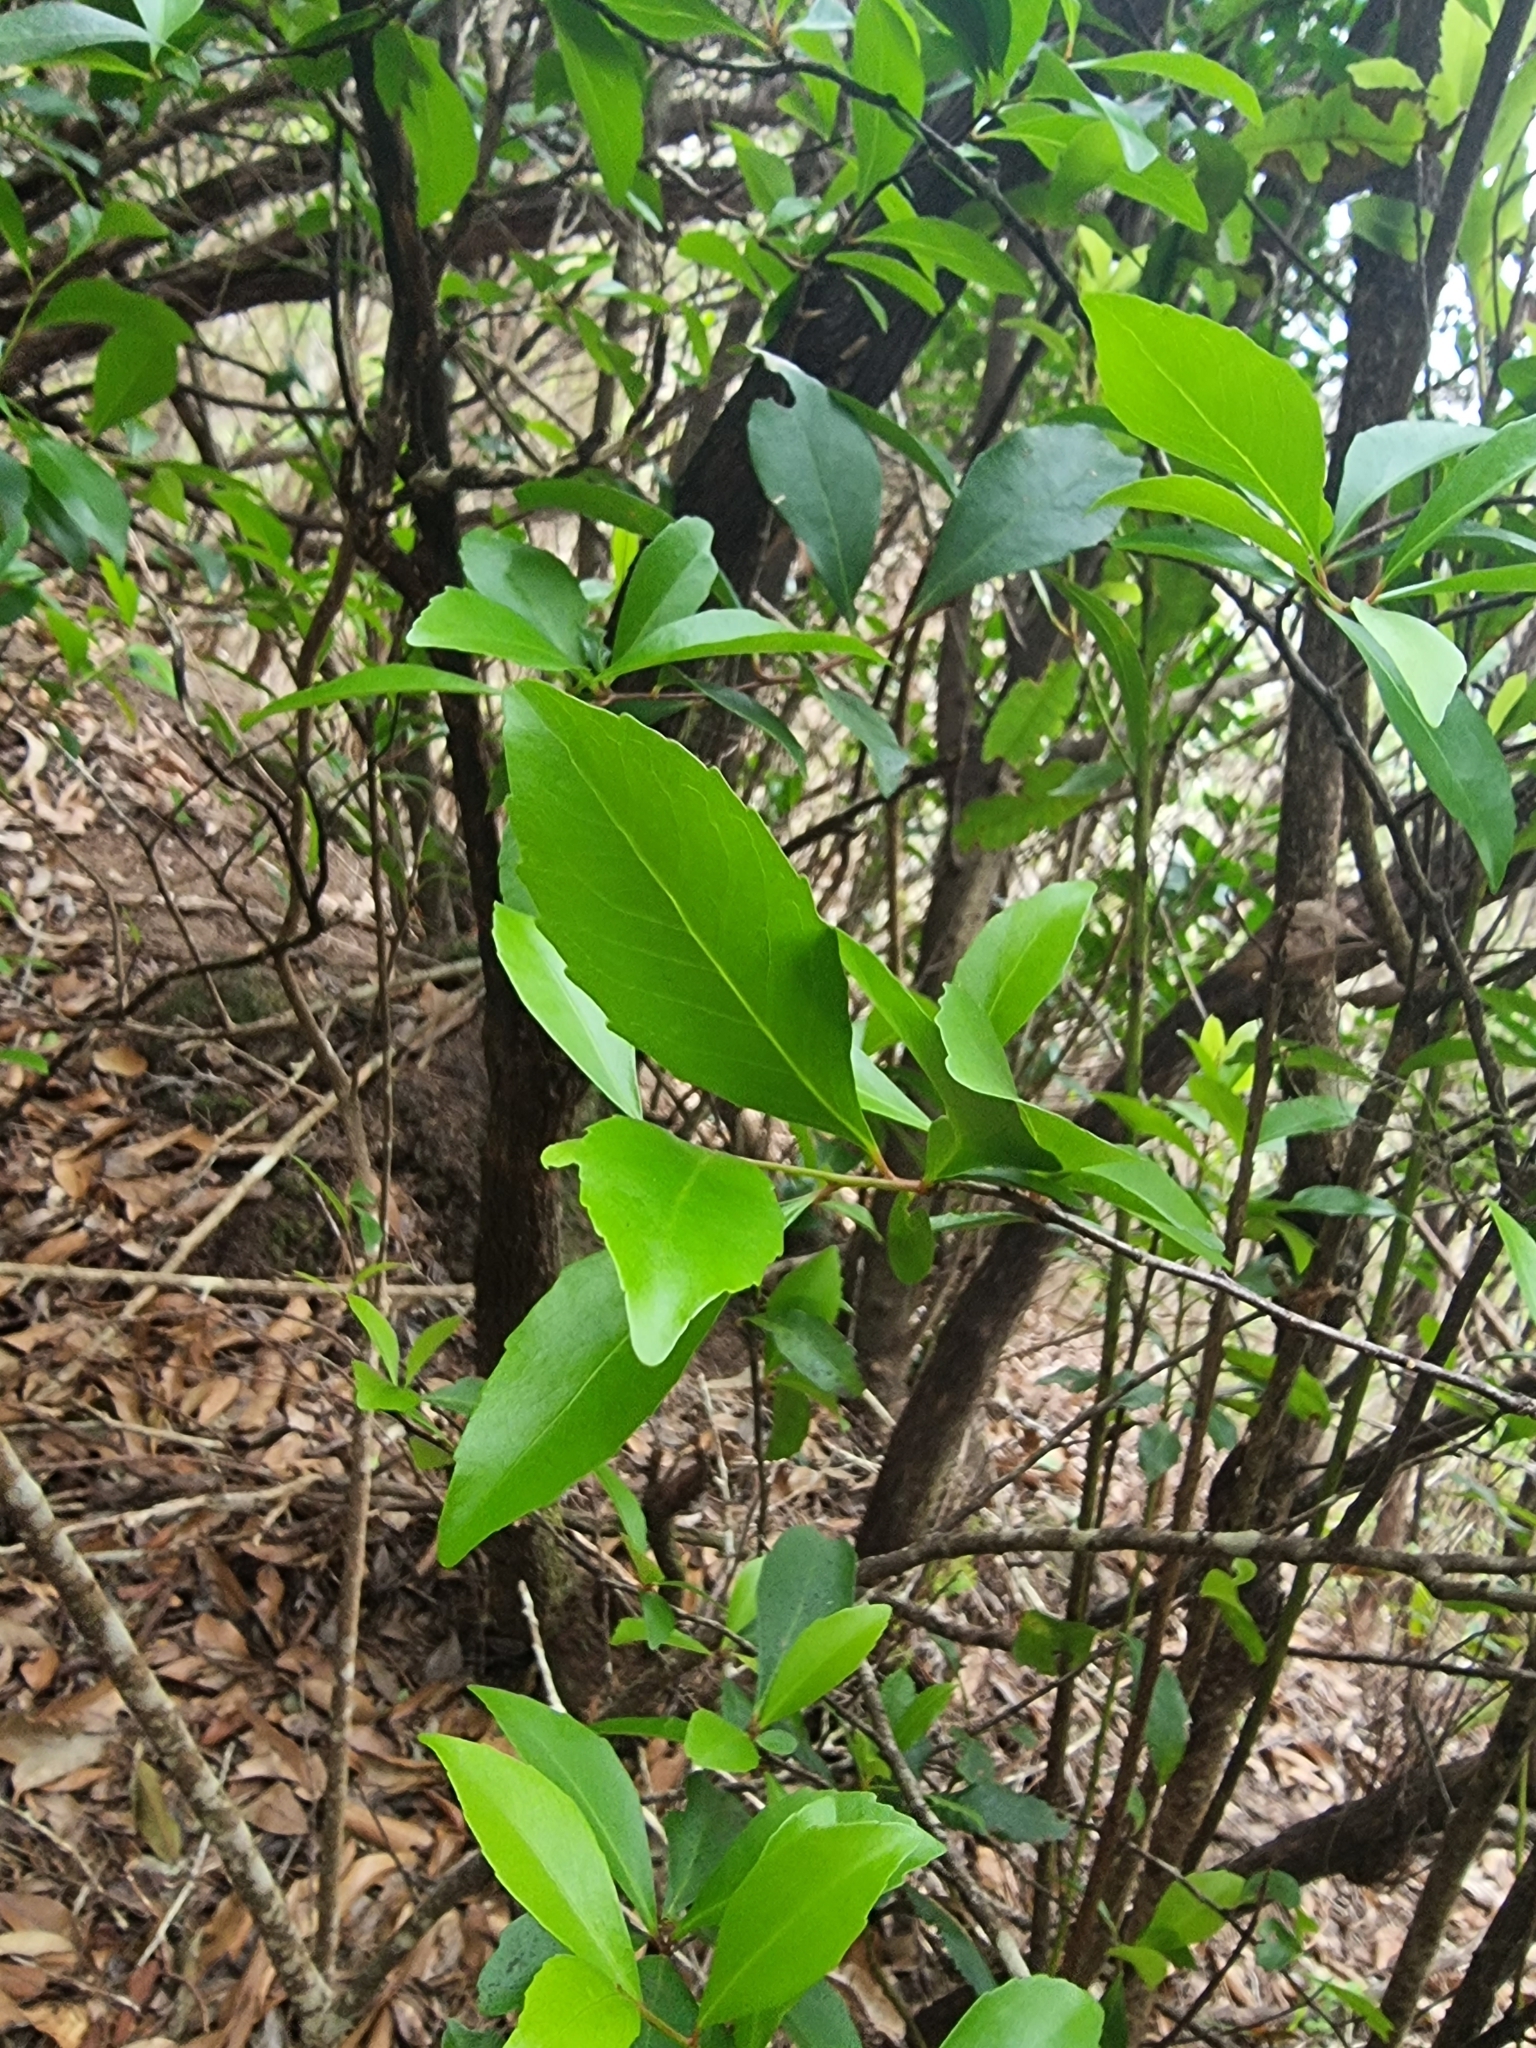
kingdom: Plantae
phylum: Tracheophyta
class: Magnoliopsida
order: Celastrales
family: Celastraceae
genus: Gymnosporia
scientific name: Gymnosporia dryandri
